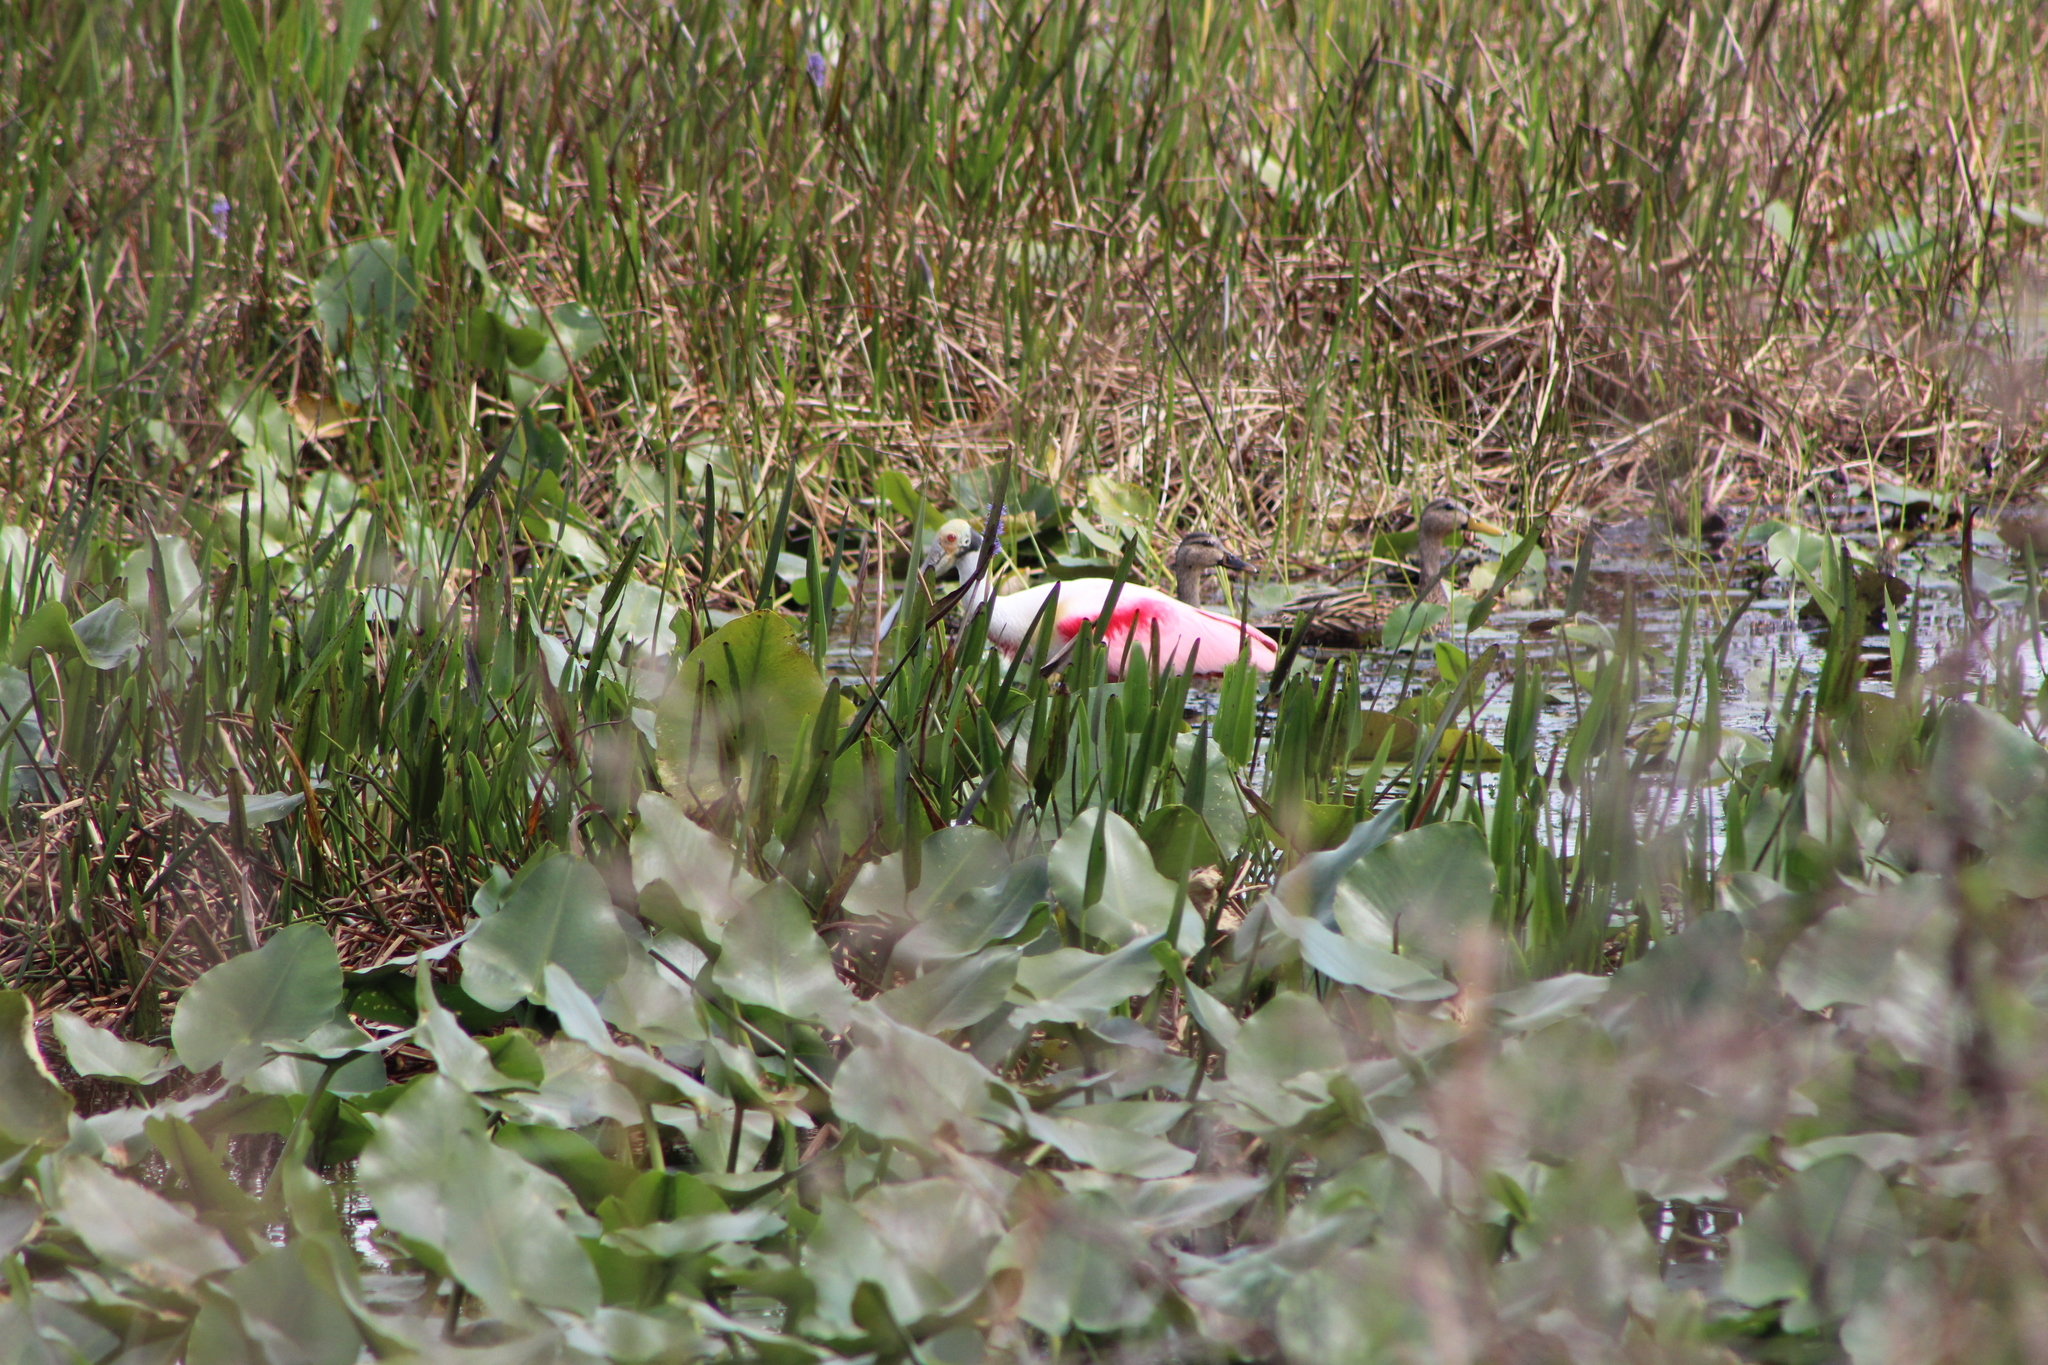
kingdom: Animalia
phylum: Chordata
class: Aves
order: Pelecaniformes
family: Threskiornithidae
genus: Platalea
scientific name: Platalea ajaja
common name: Roseate spoonbill
